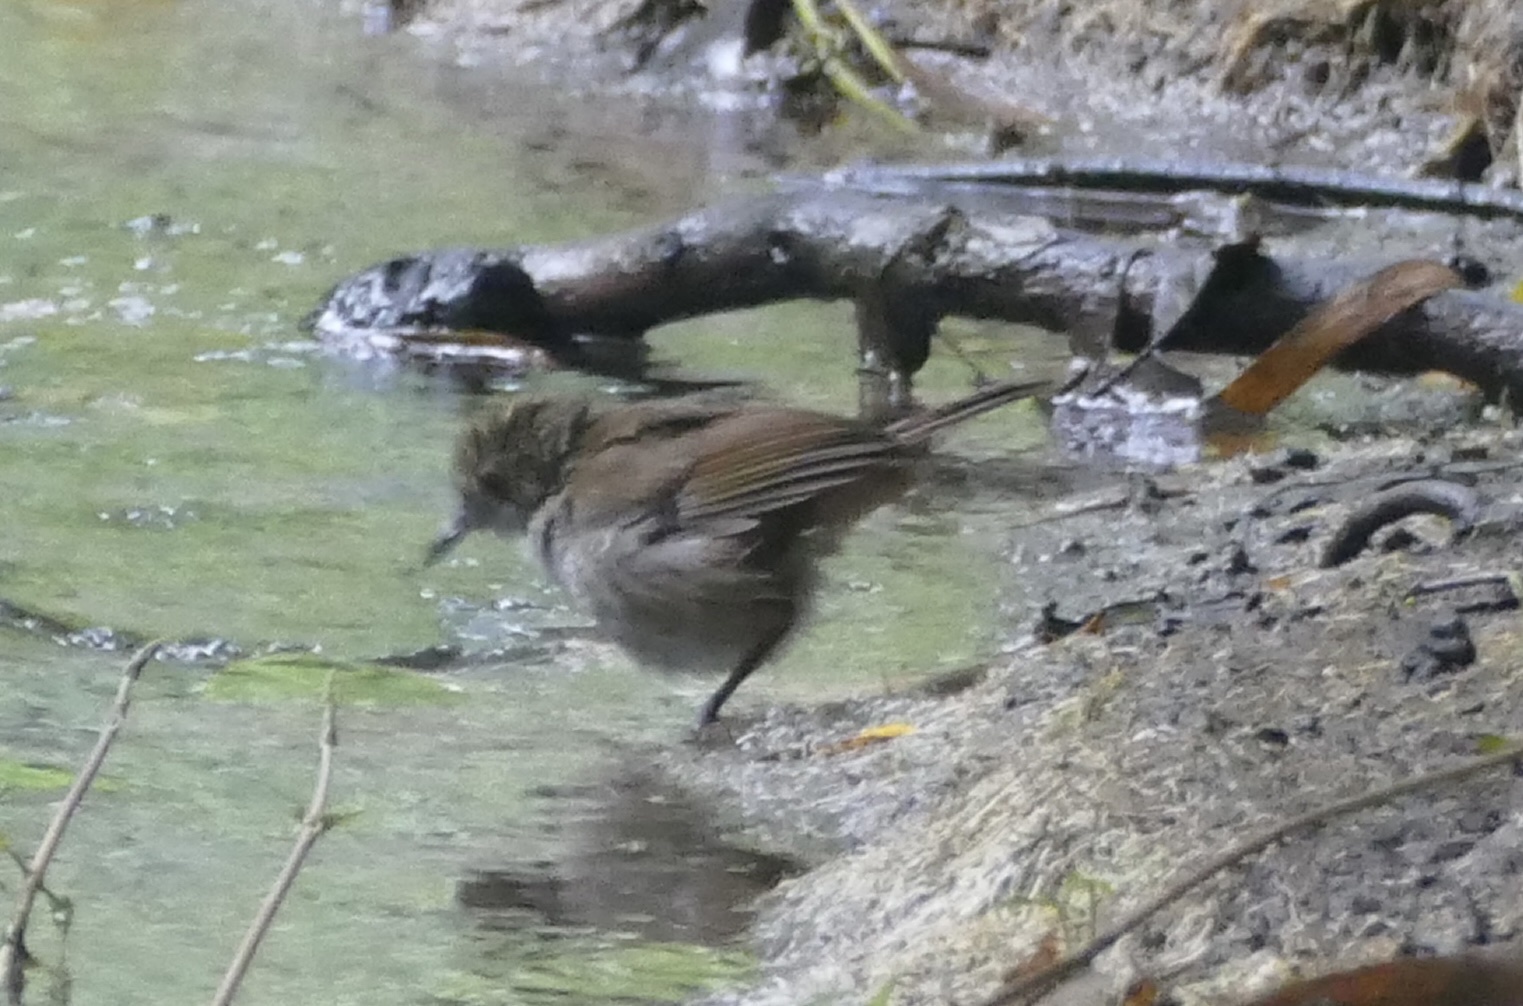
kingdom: Animalia
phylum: Chordata
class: Aves
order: Passeriformes
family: Pellorneidae
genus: Trichastoma
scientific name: Trichastoma celebense
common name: Sulawesi babbler
